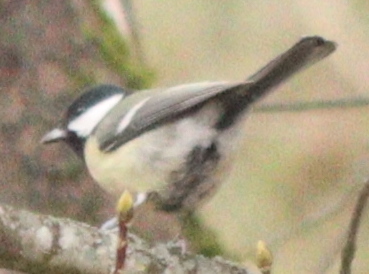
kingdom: Animalia
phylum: Chordata
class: Aves
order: Passeriformes
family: Paridae
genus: Parus
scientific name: Parus major
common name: Great tit
